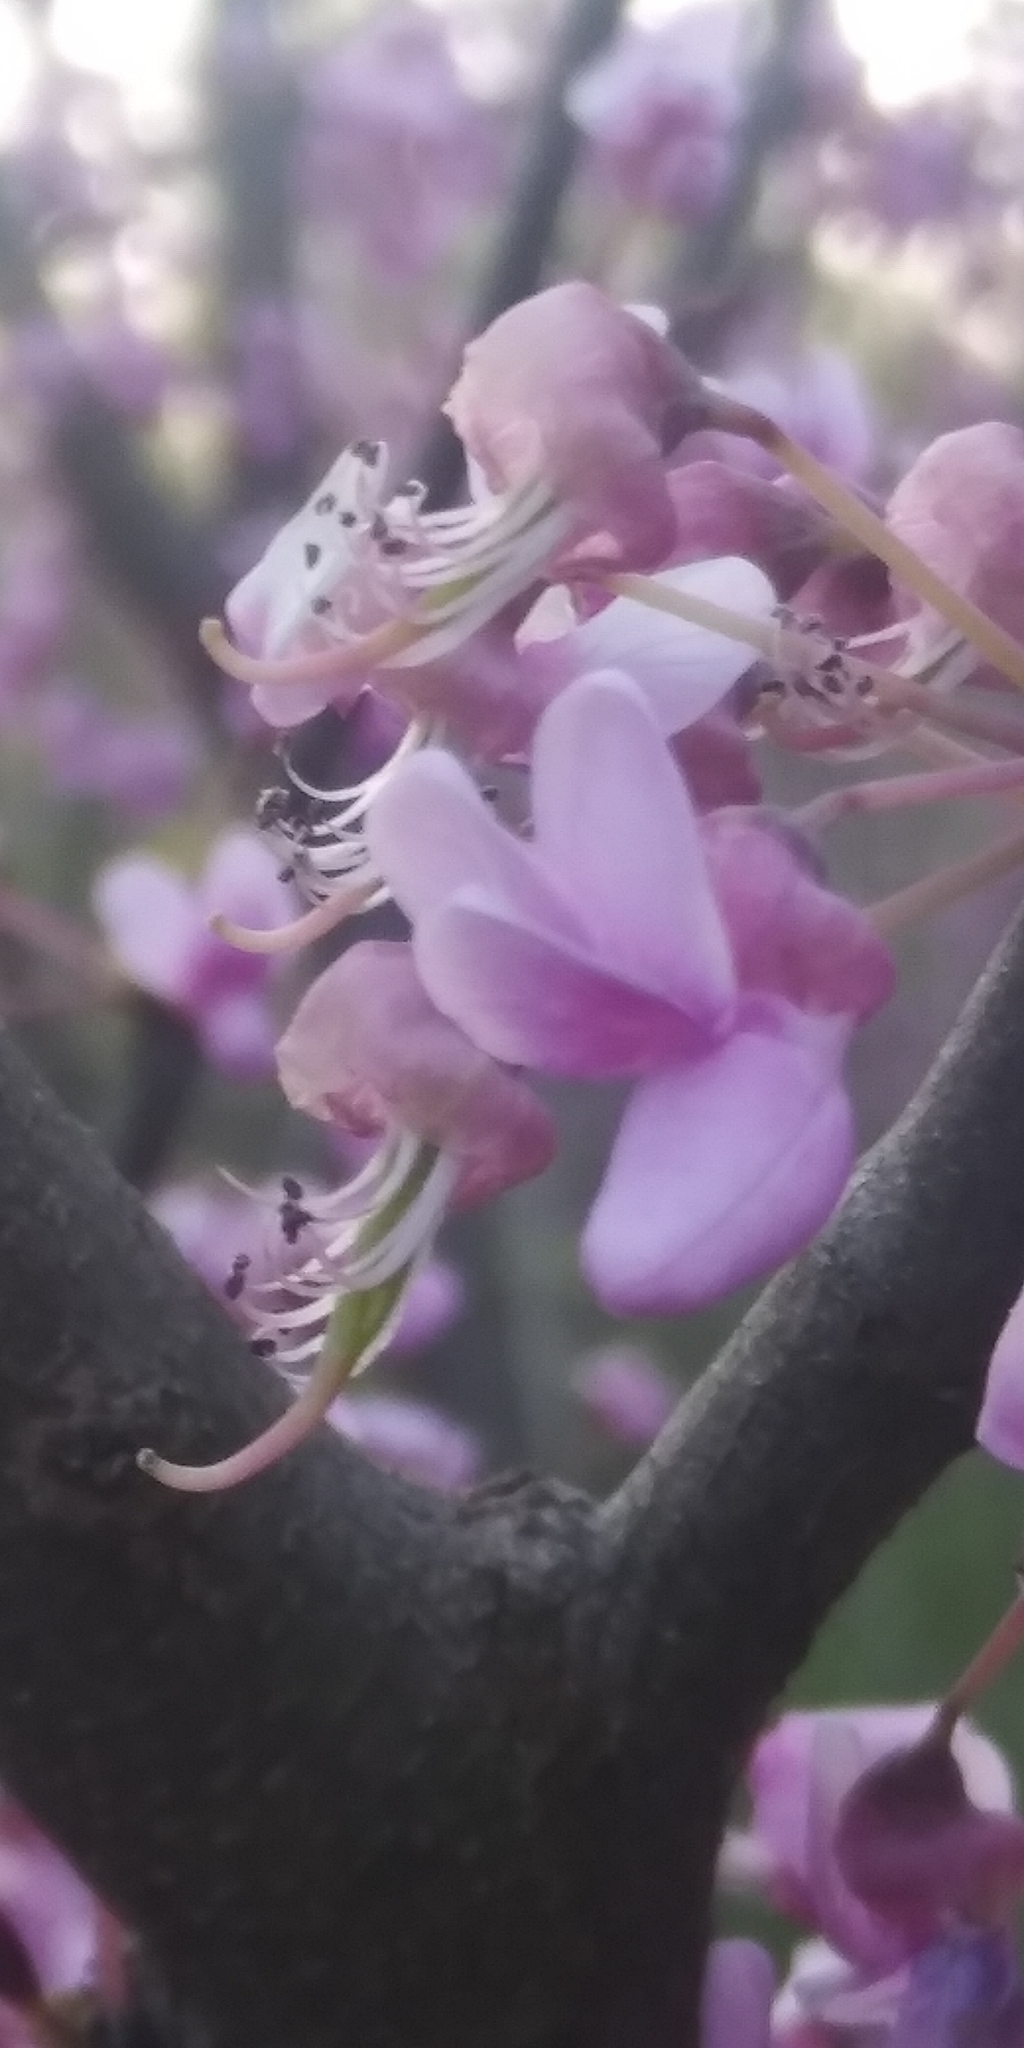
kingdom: Plantae
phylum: Tracheophyta
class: Magnoliopsida
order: Fabales
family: Fabaceae
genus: Cercis
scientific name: Cercis canadensis
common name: Eastern redbud
